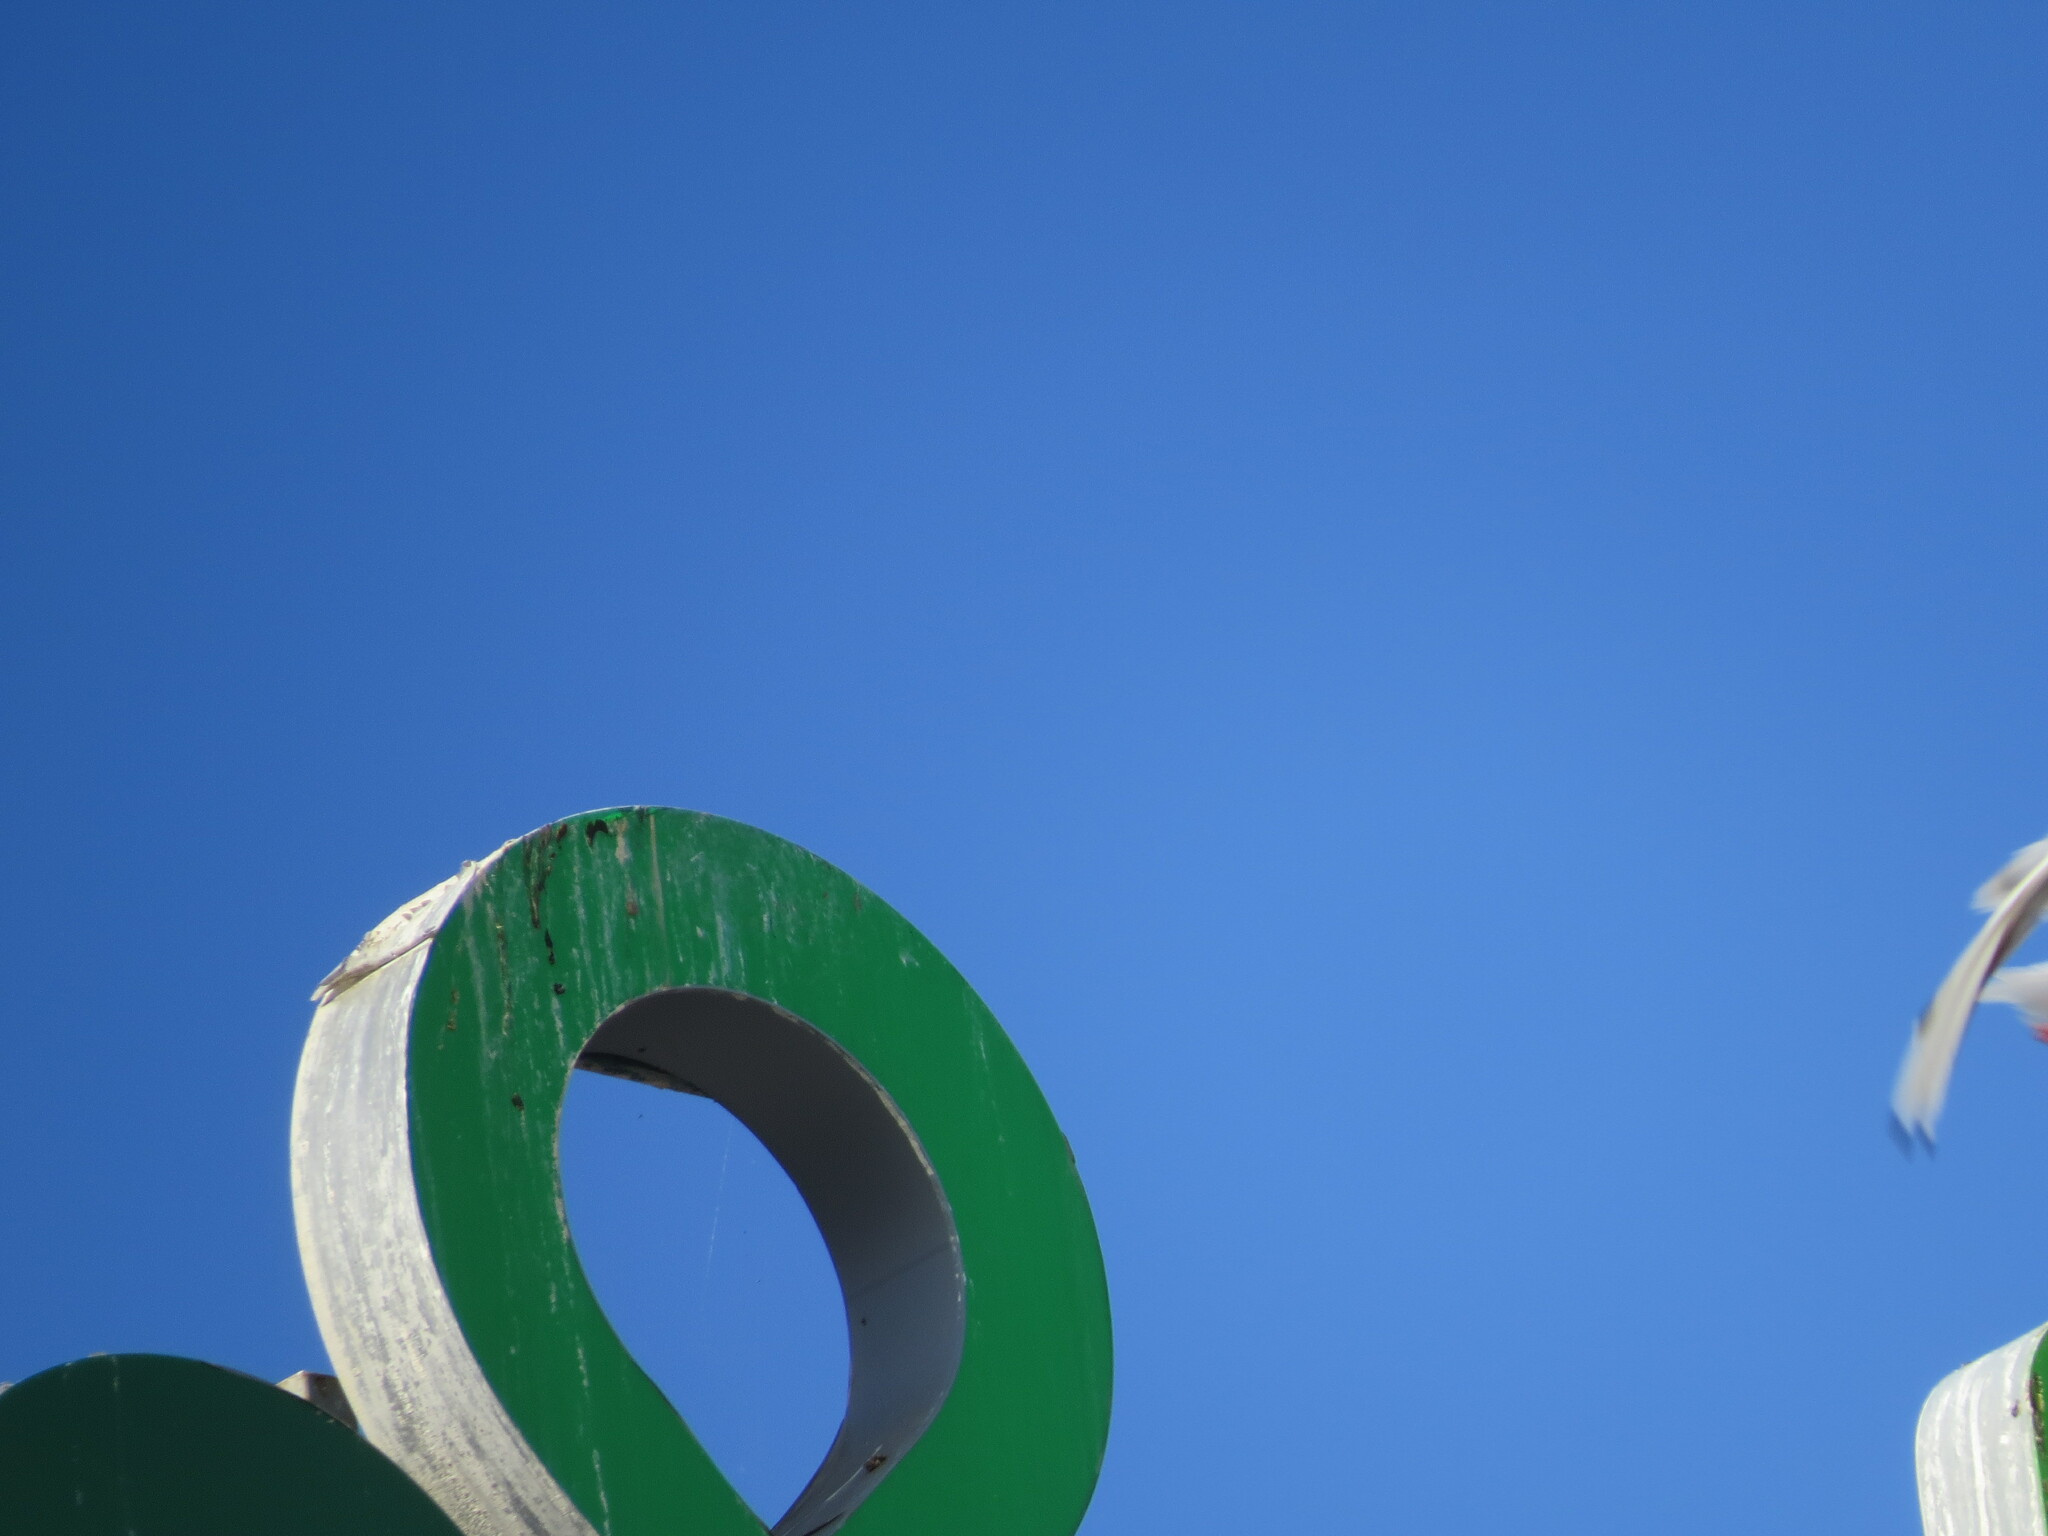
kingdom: Animalia
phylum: Chordata
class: Aves
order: Charadriiformes
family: Laridae
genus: Chroicocephalus
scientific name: Chroicocephalus ridibundus
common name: Black-headed gull
